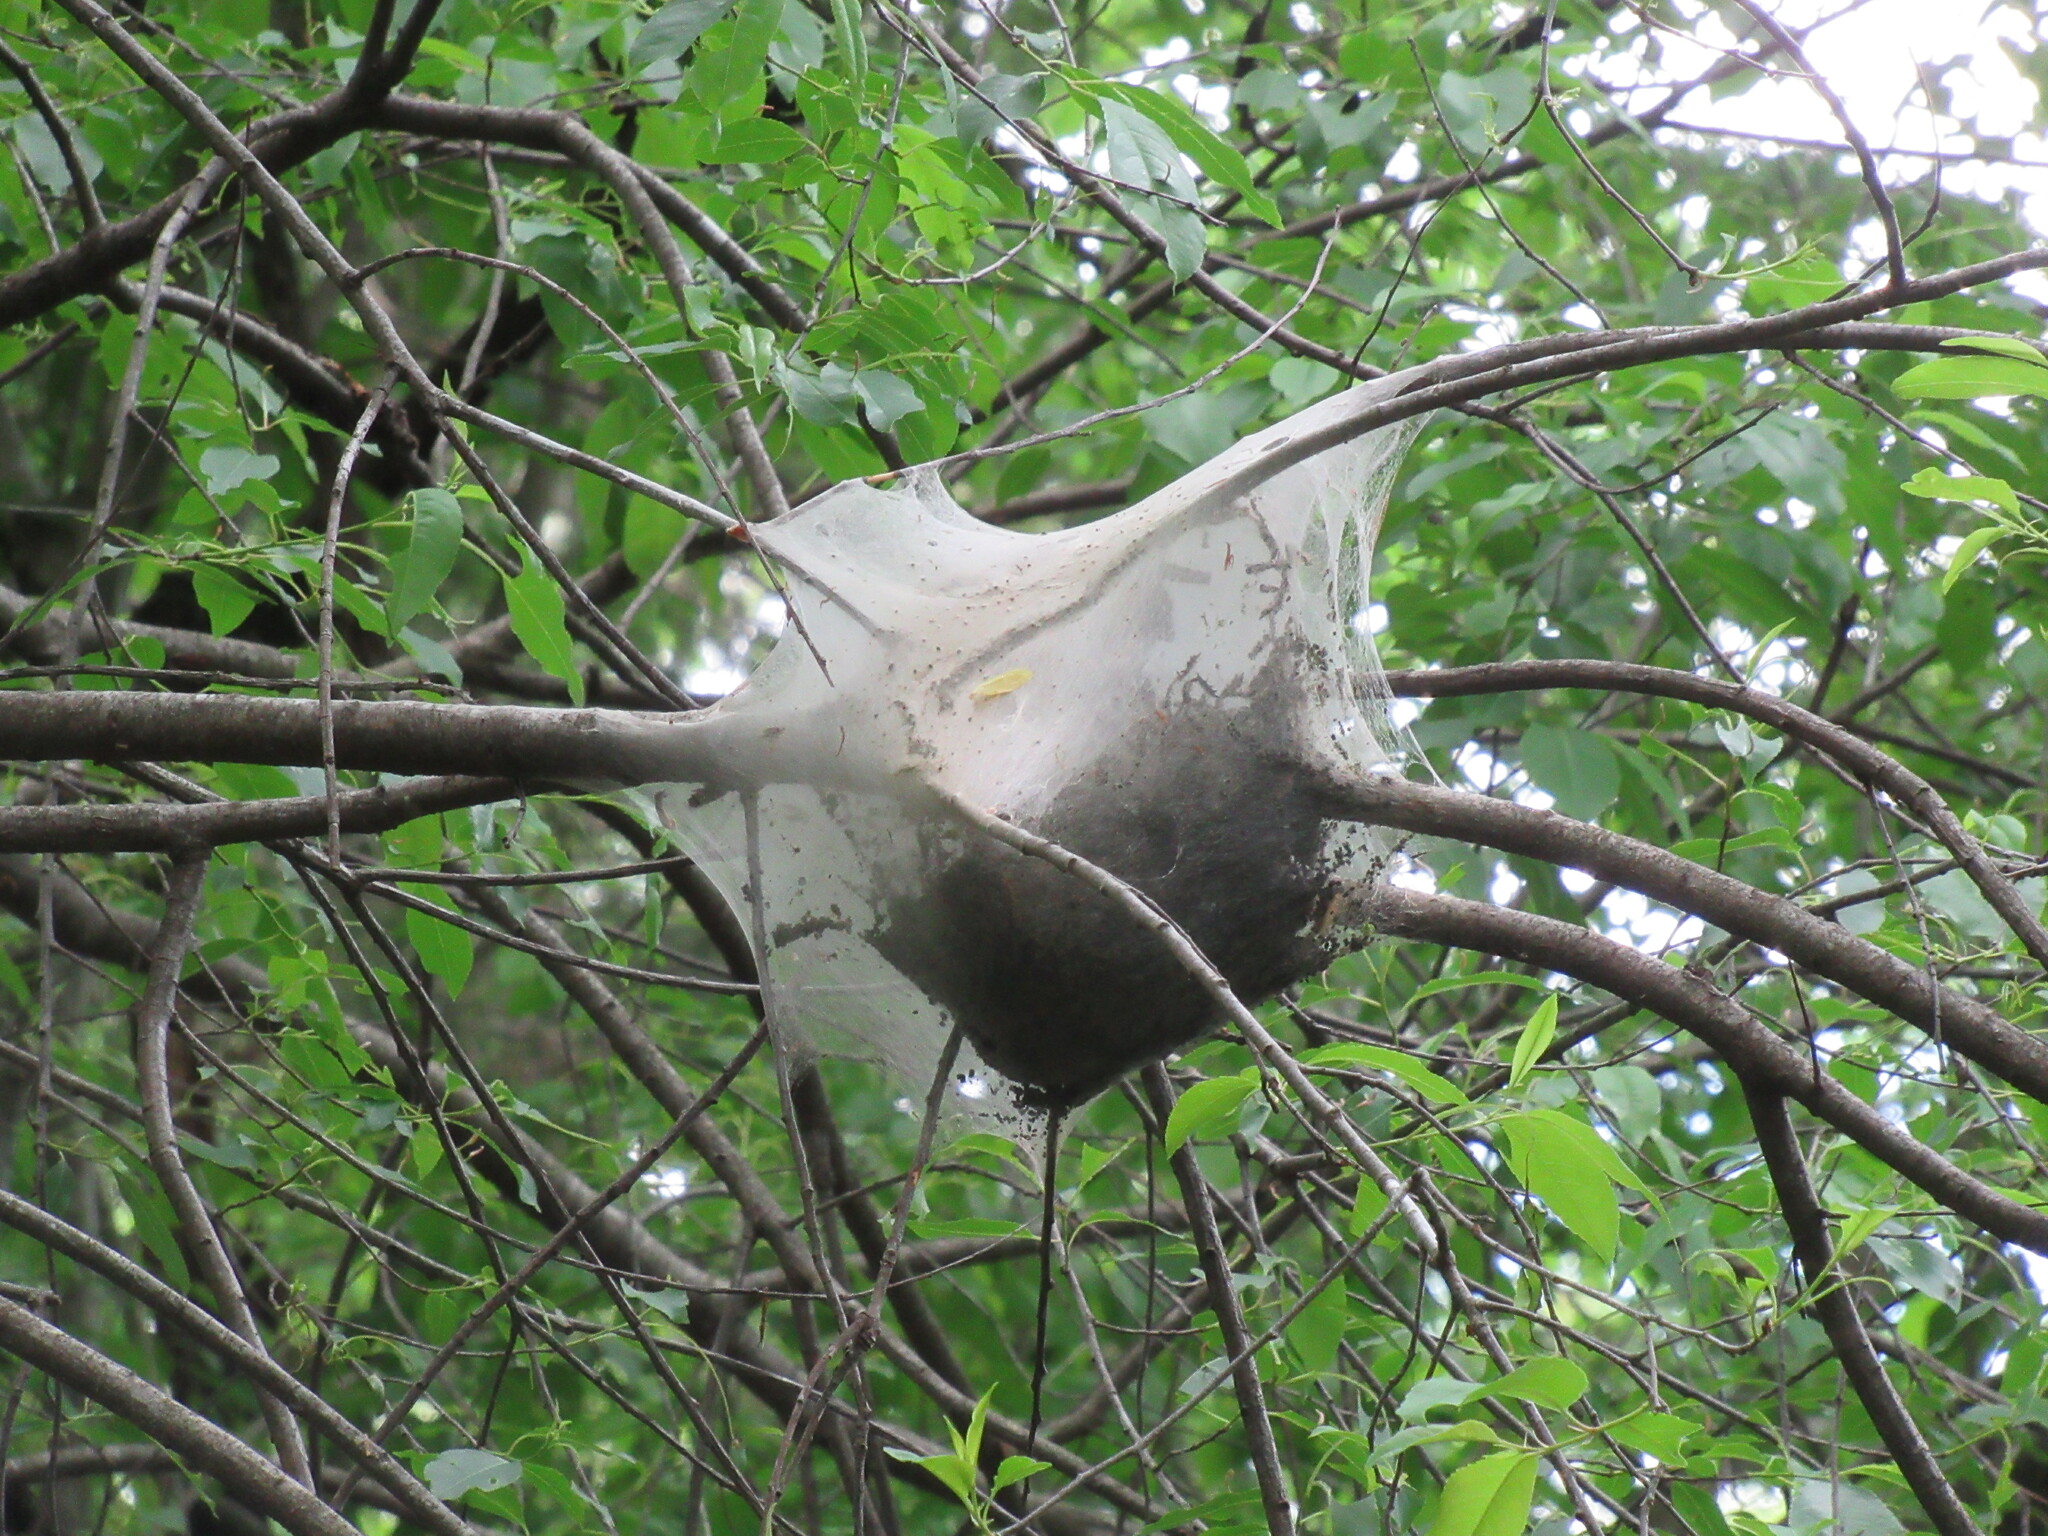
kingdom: Animalia
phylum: Arthropoda
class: Insecta
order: Lepidoptera
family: Lasiocampidae
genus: Malacosoma
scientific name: Malacosoma americana
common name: Eastern tent caterpillar moth
